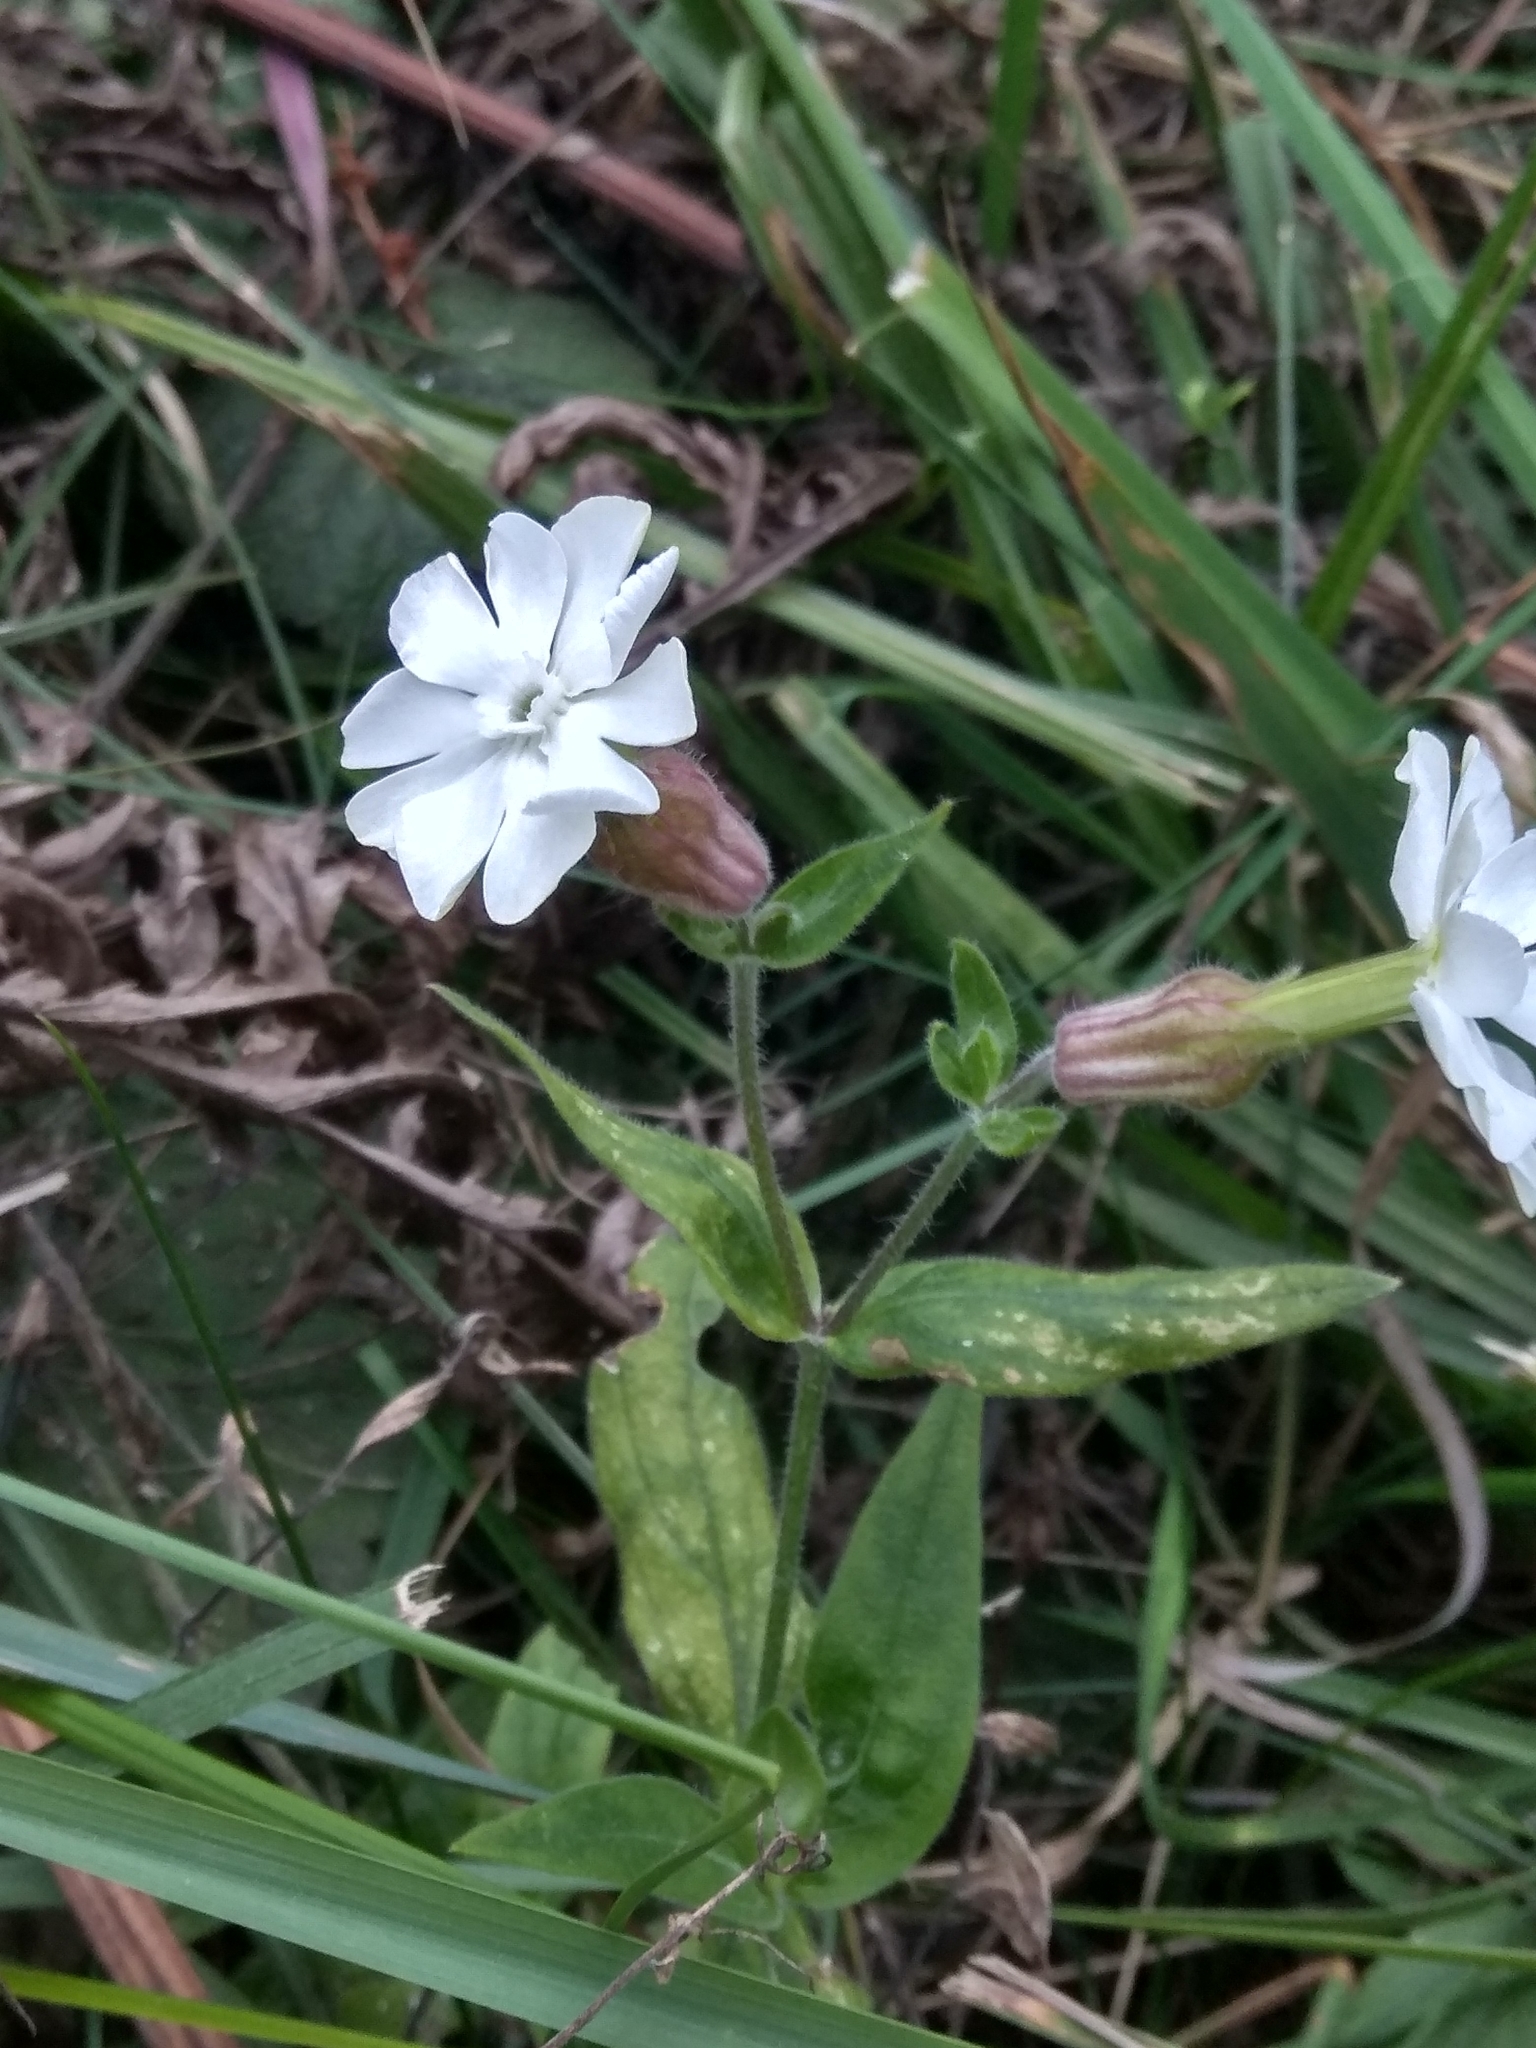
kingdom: Plantae
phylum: Tracheophyta
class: Magnoliopsida
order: Caryophyllales
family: Caryophyllaceae
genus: Silene
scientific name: Silene latifolia
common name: White campion
